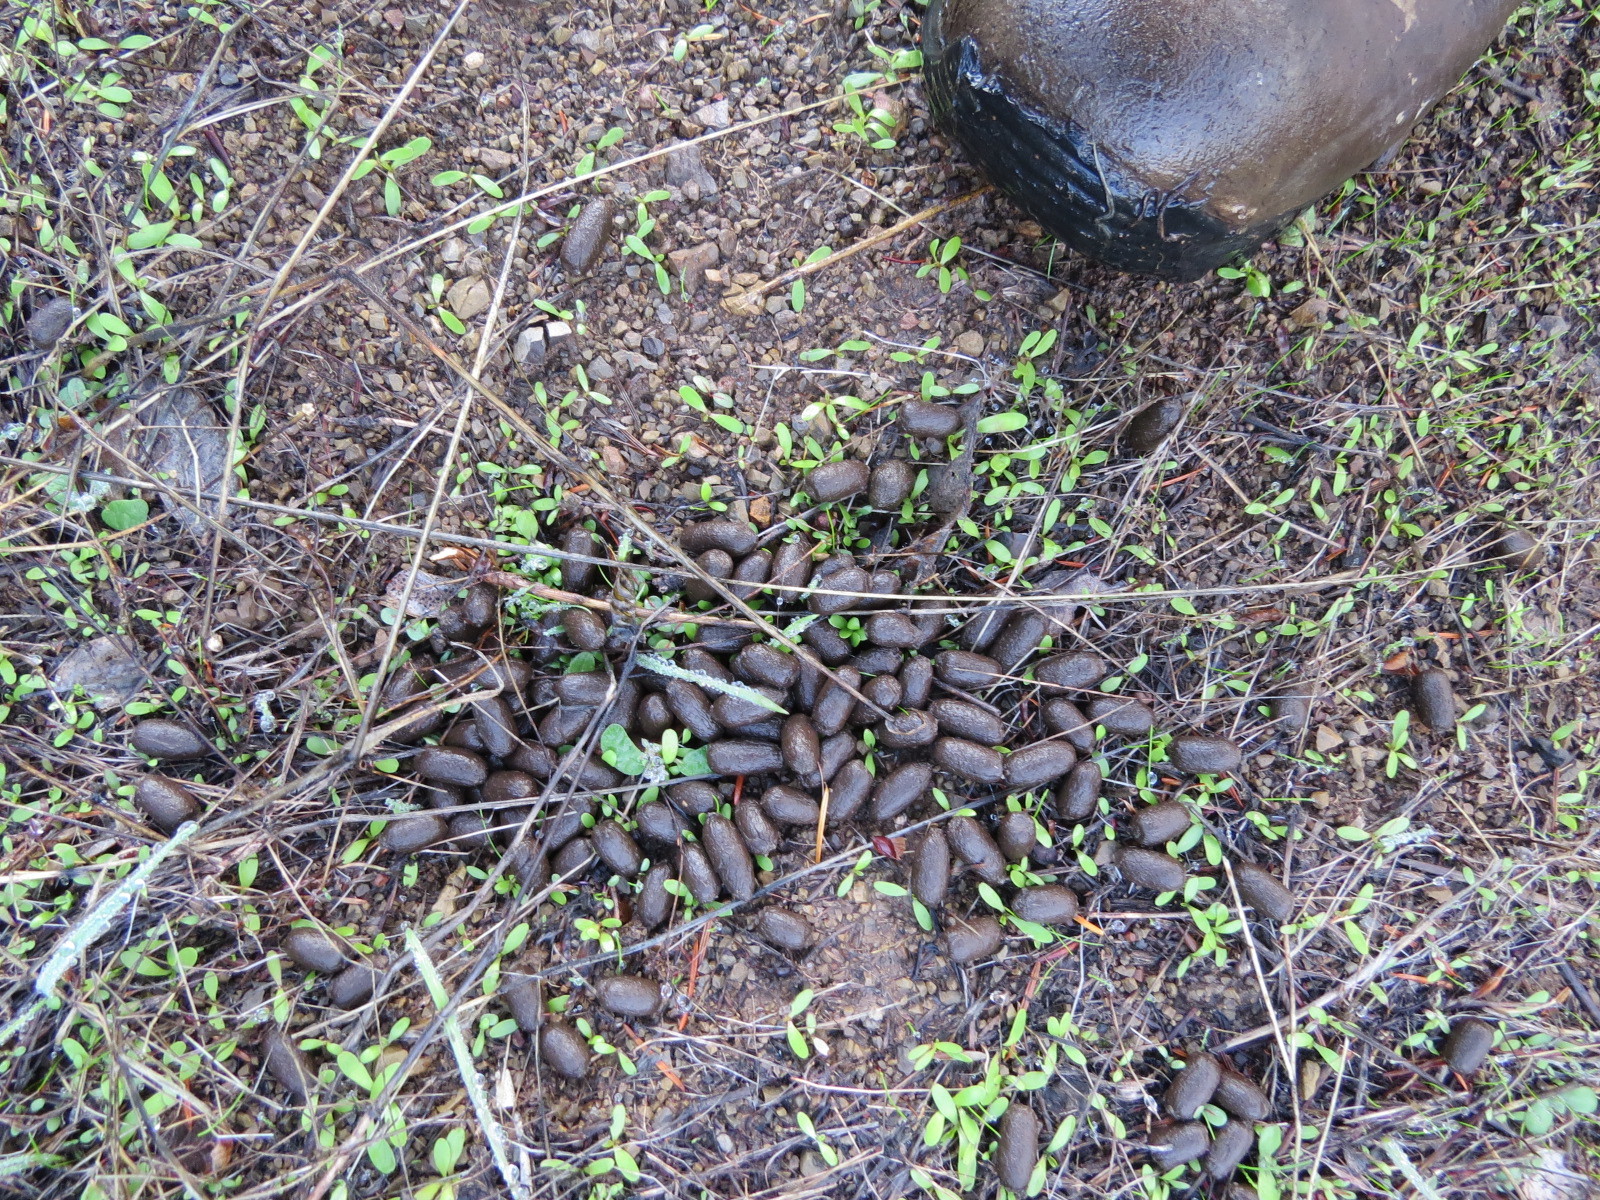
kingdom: Animalia
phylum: Chordata
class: Mammalia
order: Artiodactyla
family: Cervidae
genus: Odocoileus
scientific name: Odocoileus hemionus
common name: Mule deer
